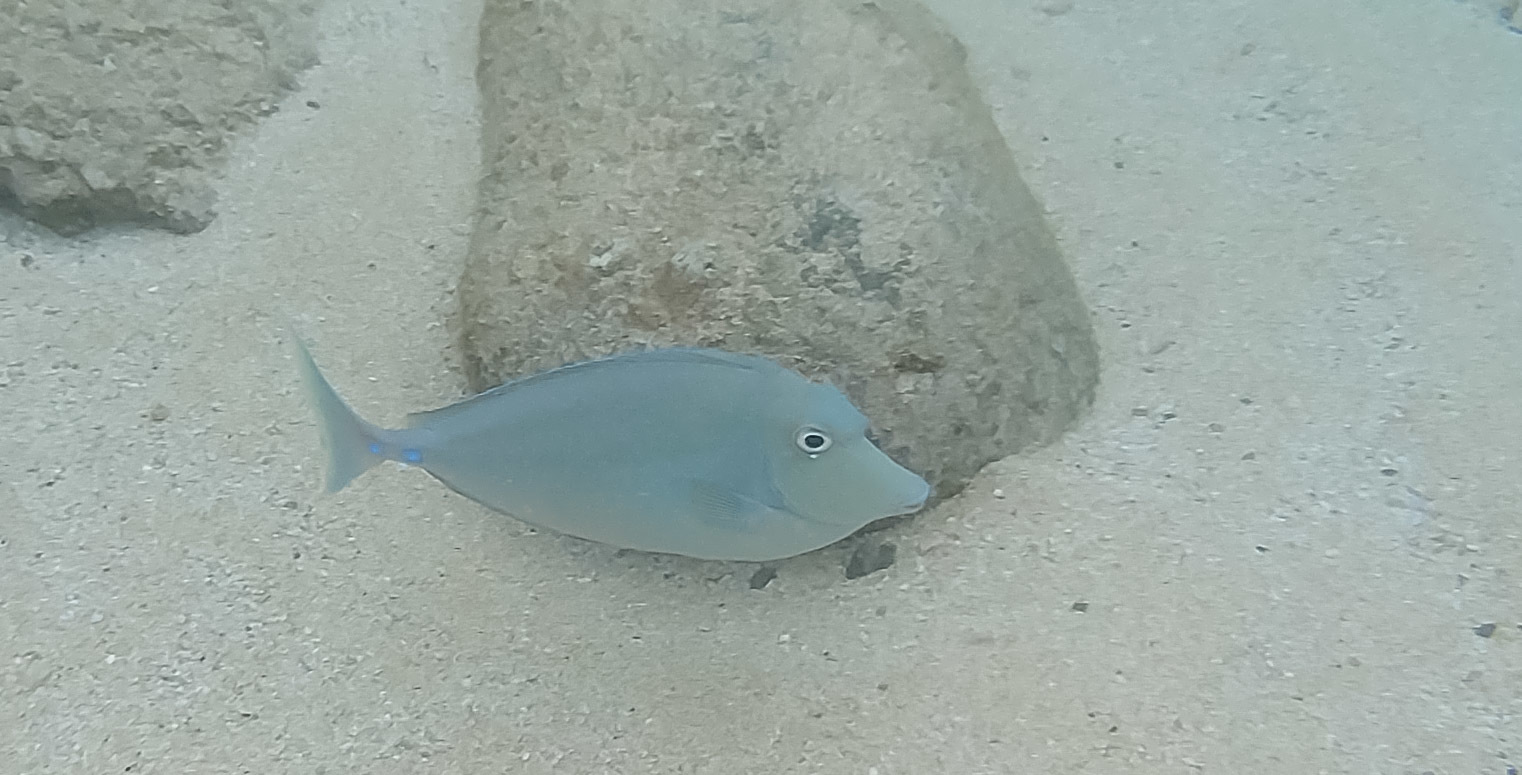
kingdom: Animalia
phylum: Chordata
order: Perciformes
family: Acanthuridae
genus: Naso
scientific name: Naso unicornis
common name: Bluespine unicornfish
